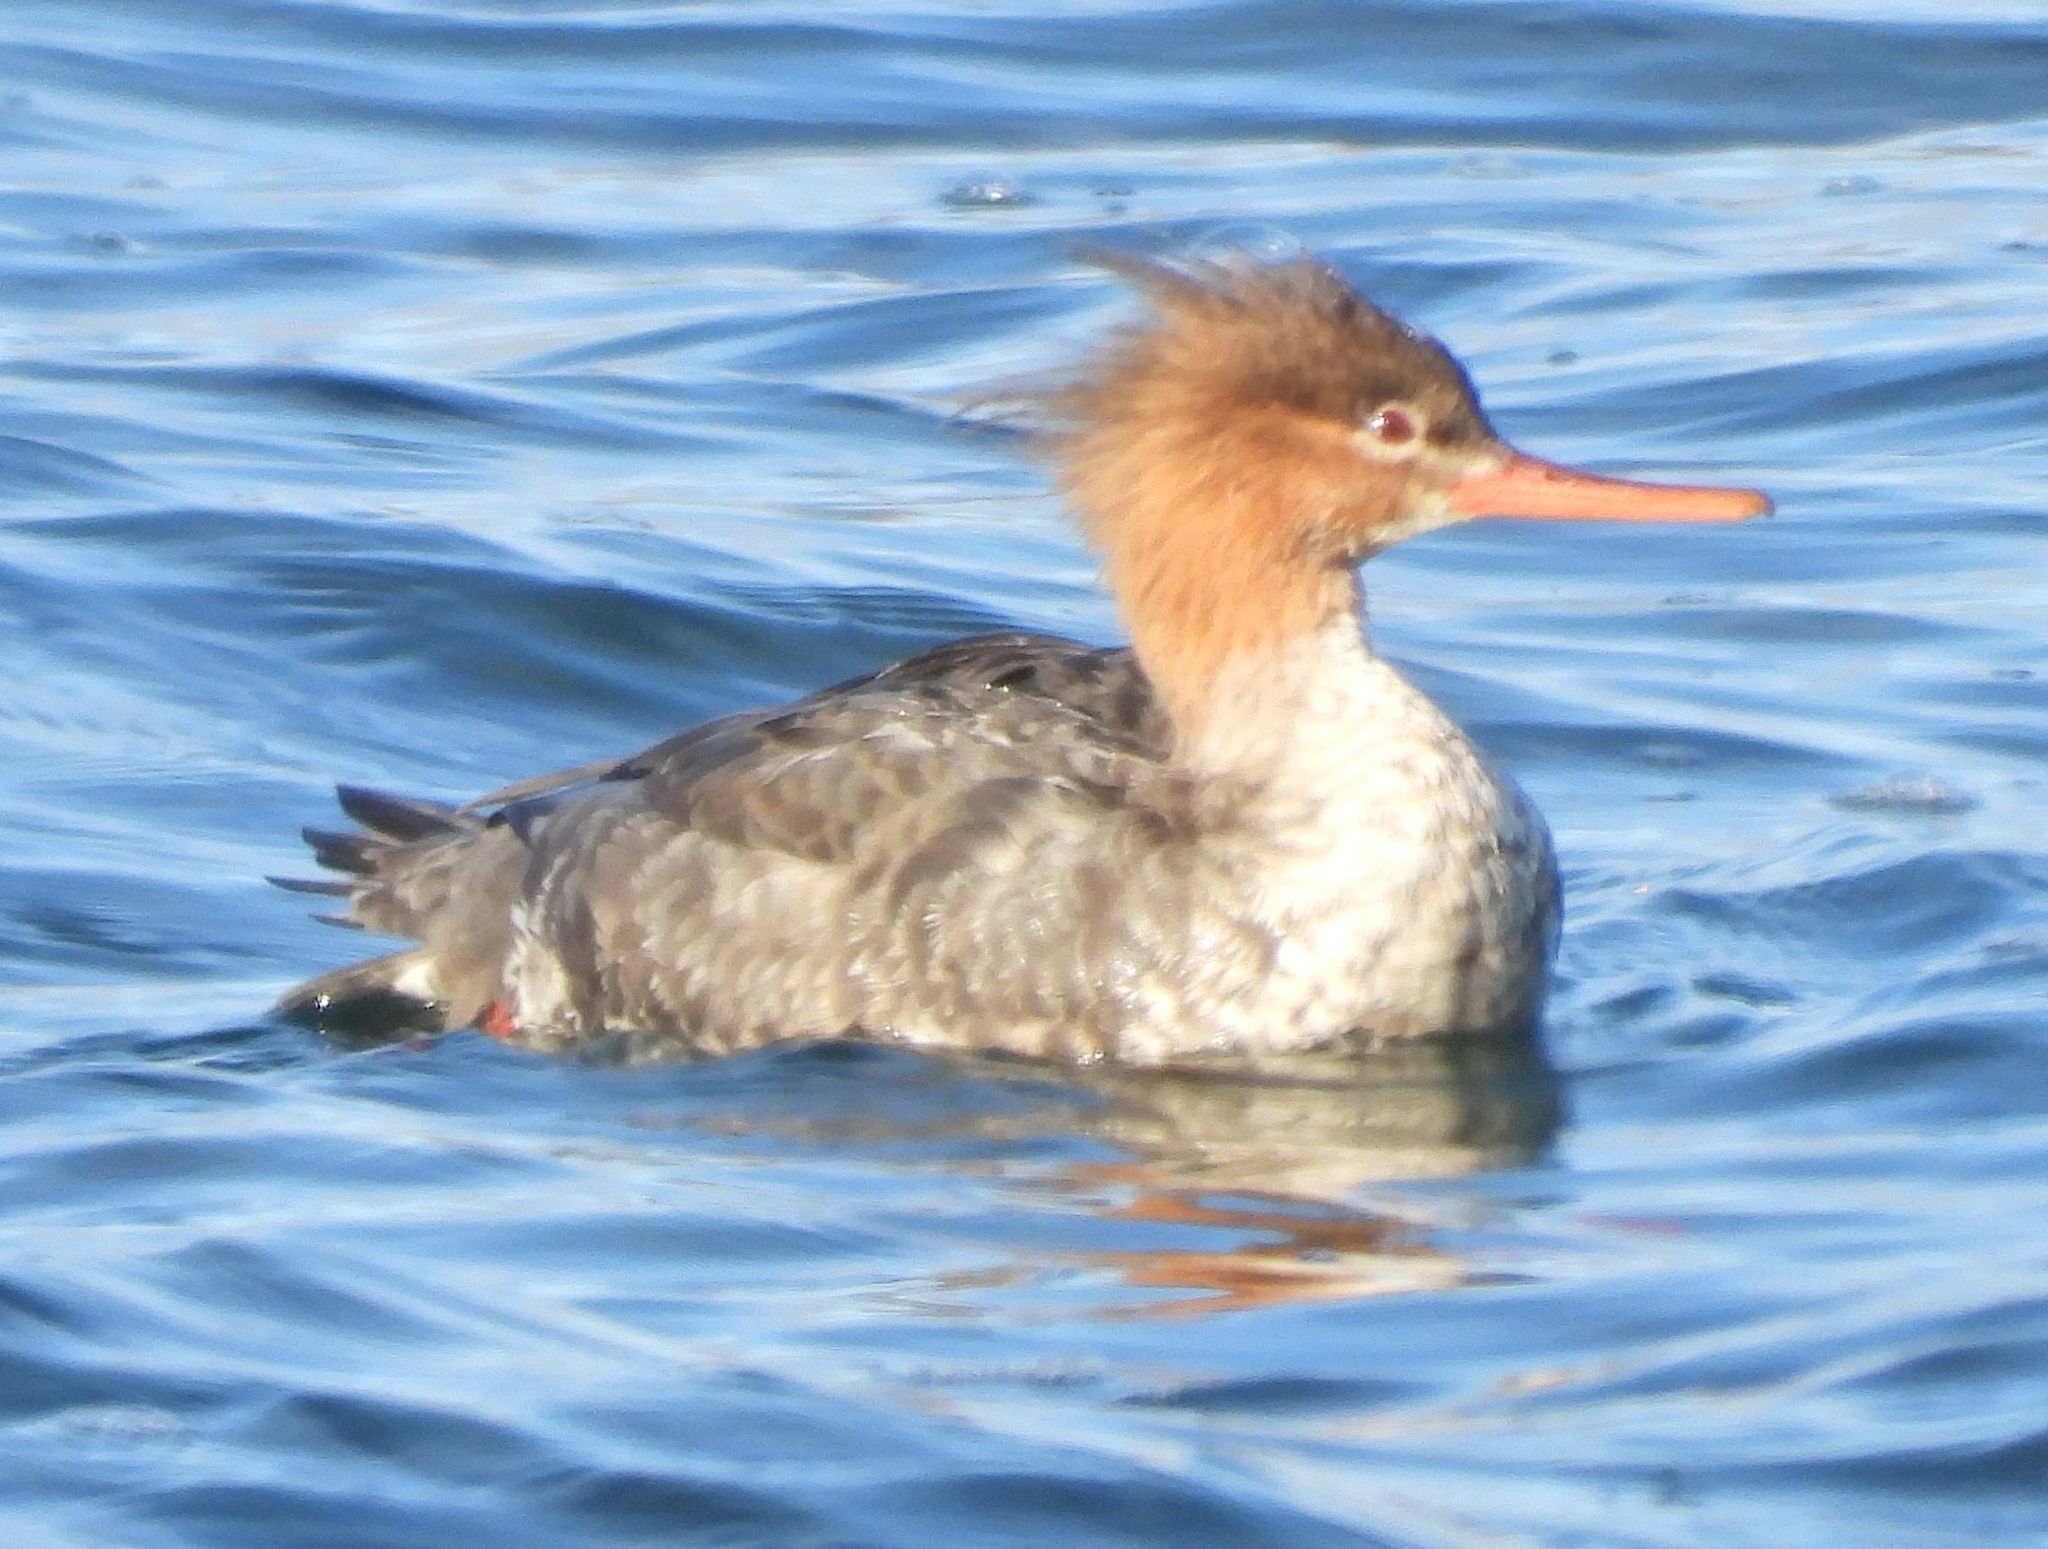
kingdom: Animalia
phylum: Chordata
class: Aves
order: Anseriformes
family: Anatidae
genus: Mergus
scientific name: Mergus serrator
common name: Red-breasted merganser
